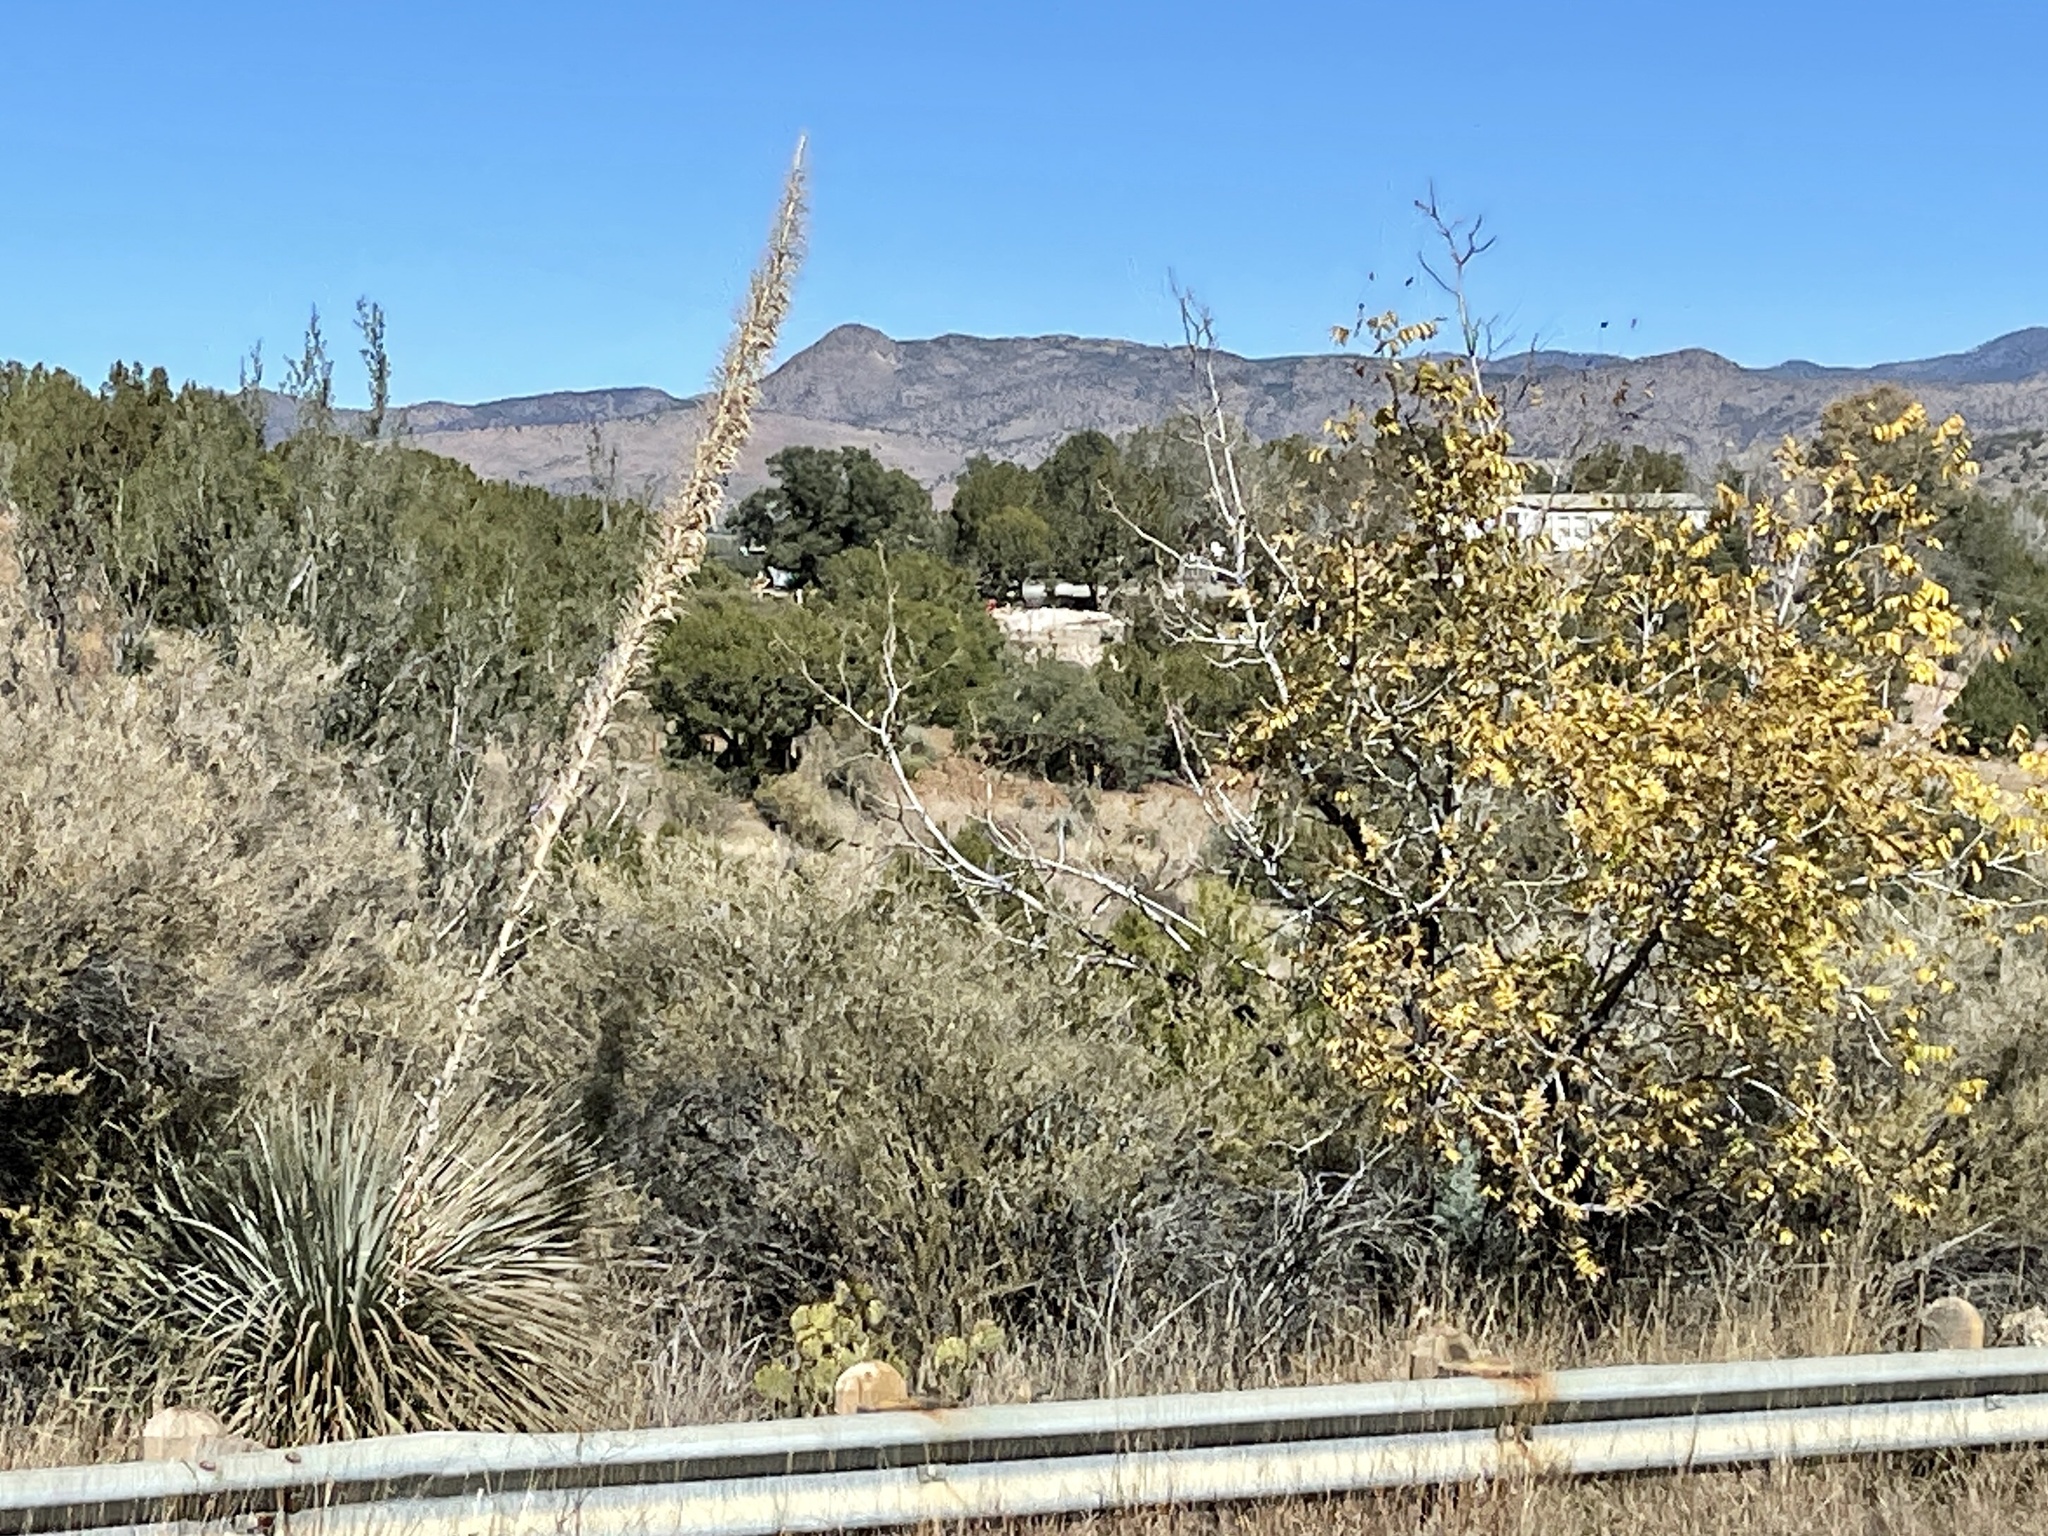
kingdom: Plantae
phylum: Tracheophyta
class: Liliopsida
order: Asparagales
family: Asparagaceae
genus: Dasylirion
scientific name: Dasylirion wheeleri
